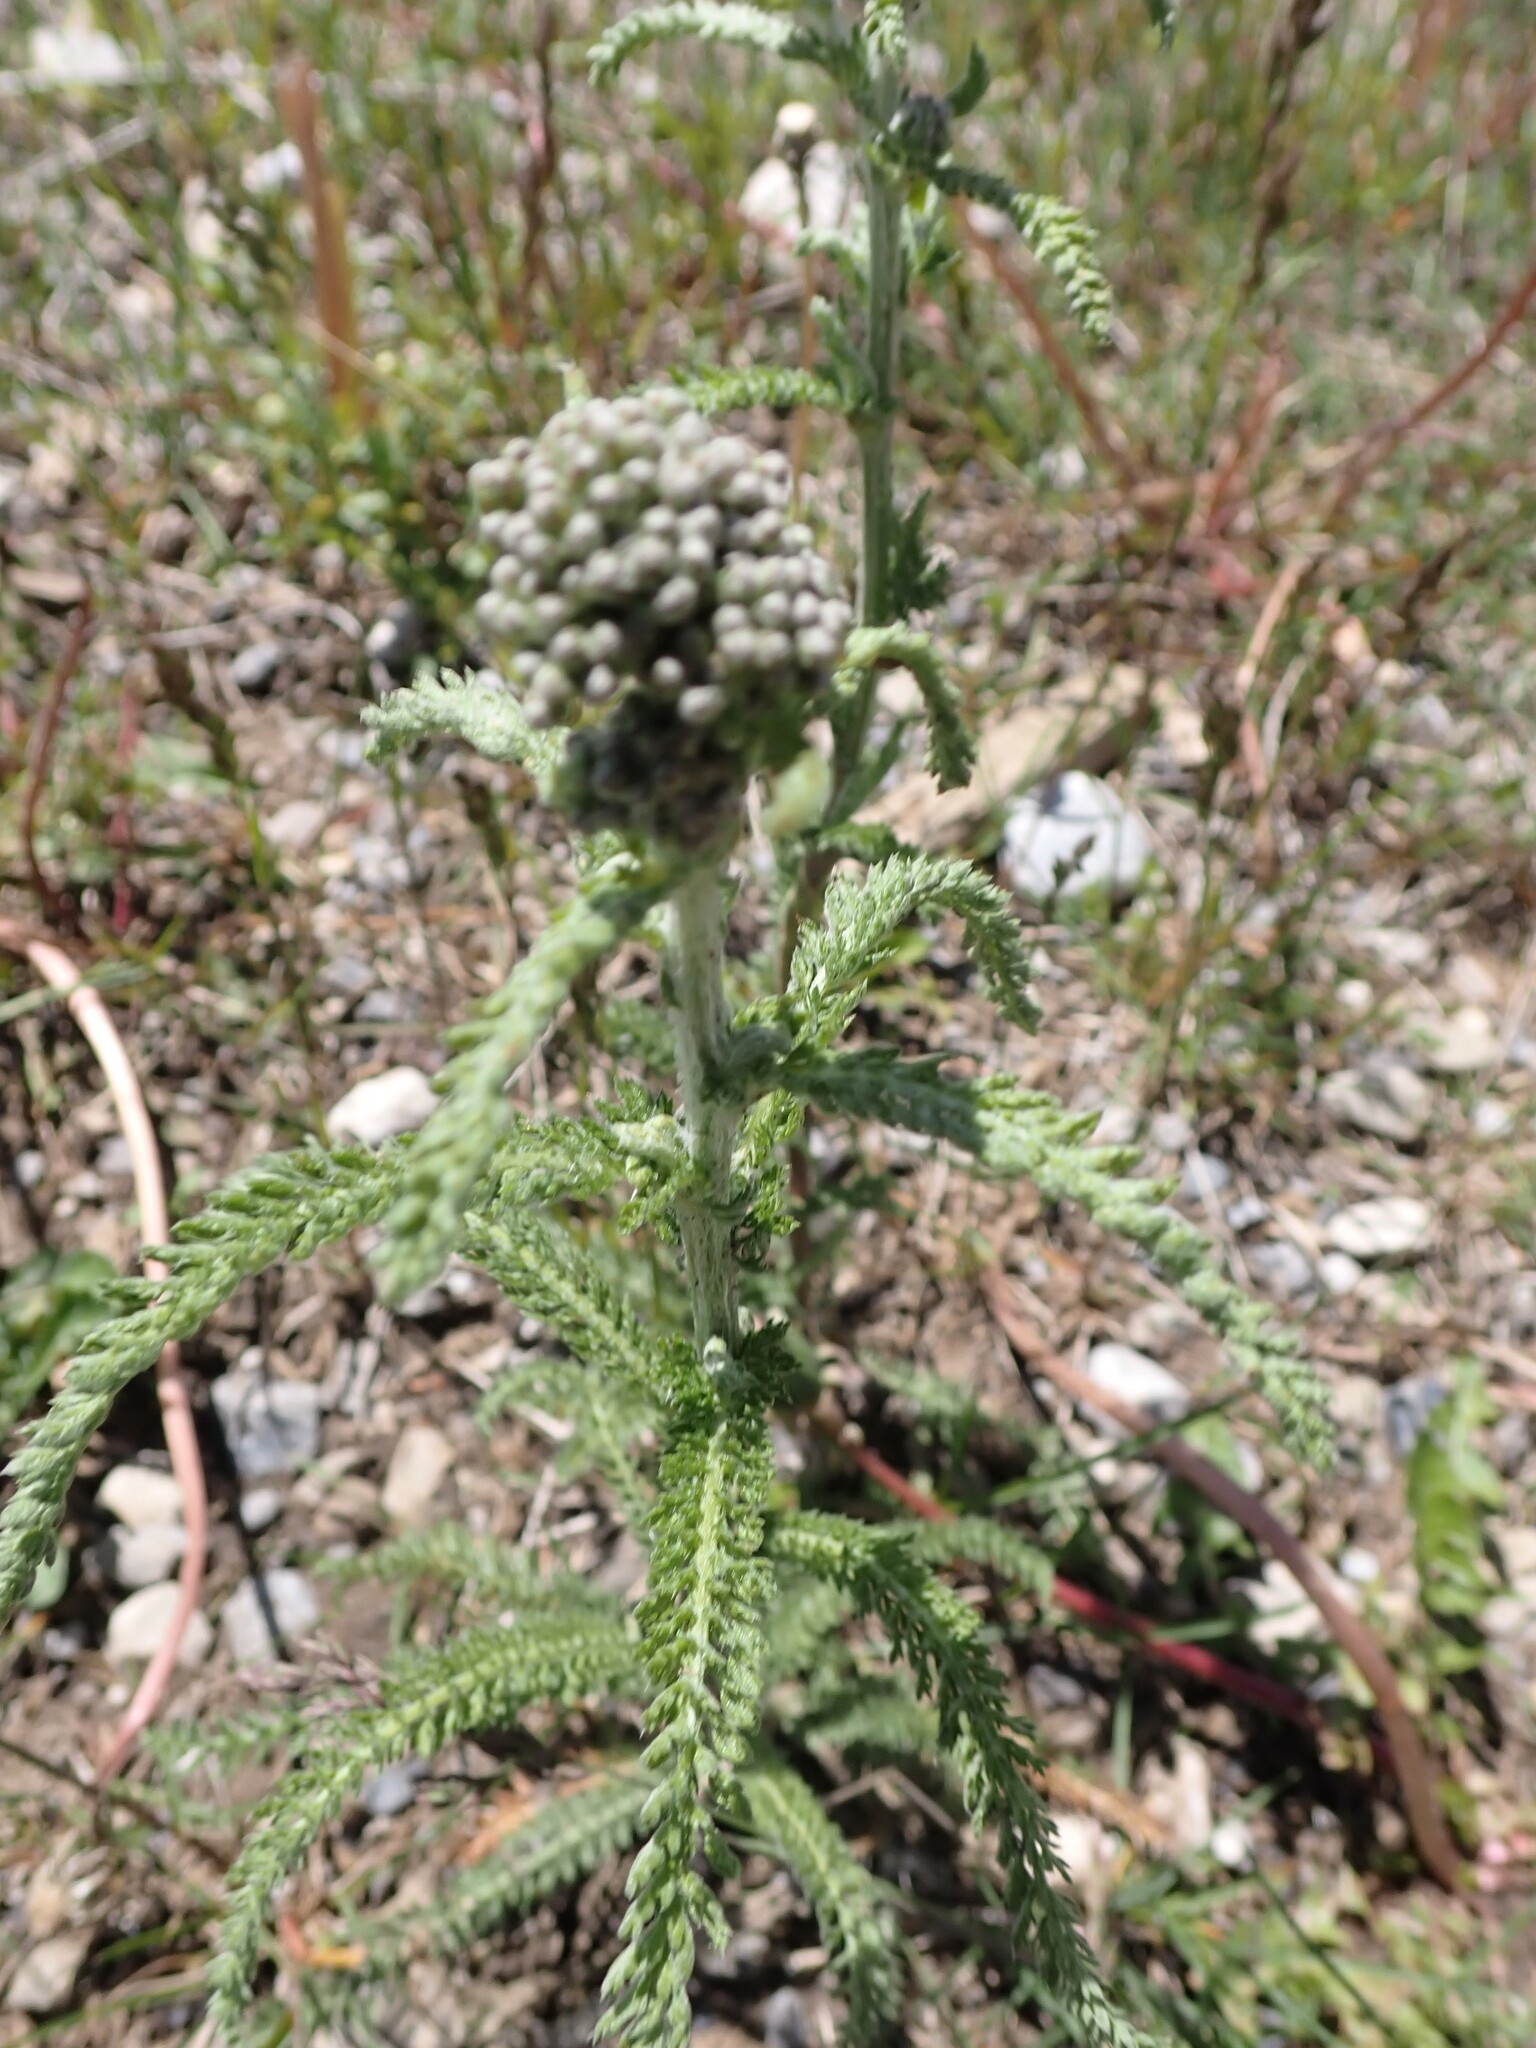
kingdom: Plantae
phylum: Tracheophyta
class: Magnoliopsida
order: Asterales
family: Asteraceae
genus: Achillea
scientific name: Achillea millefolium
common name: Yarrow
